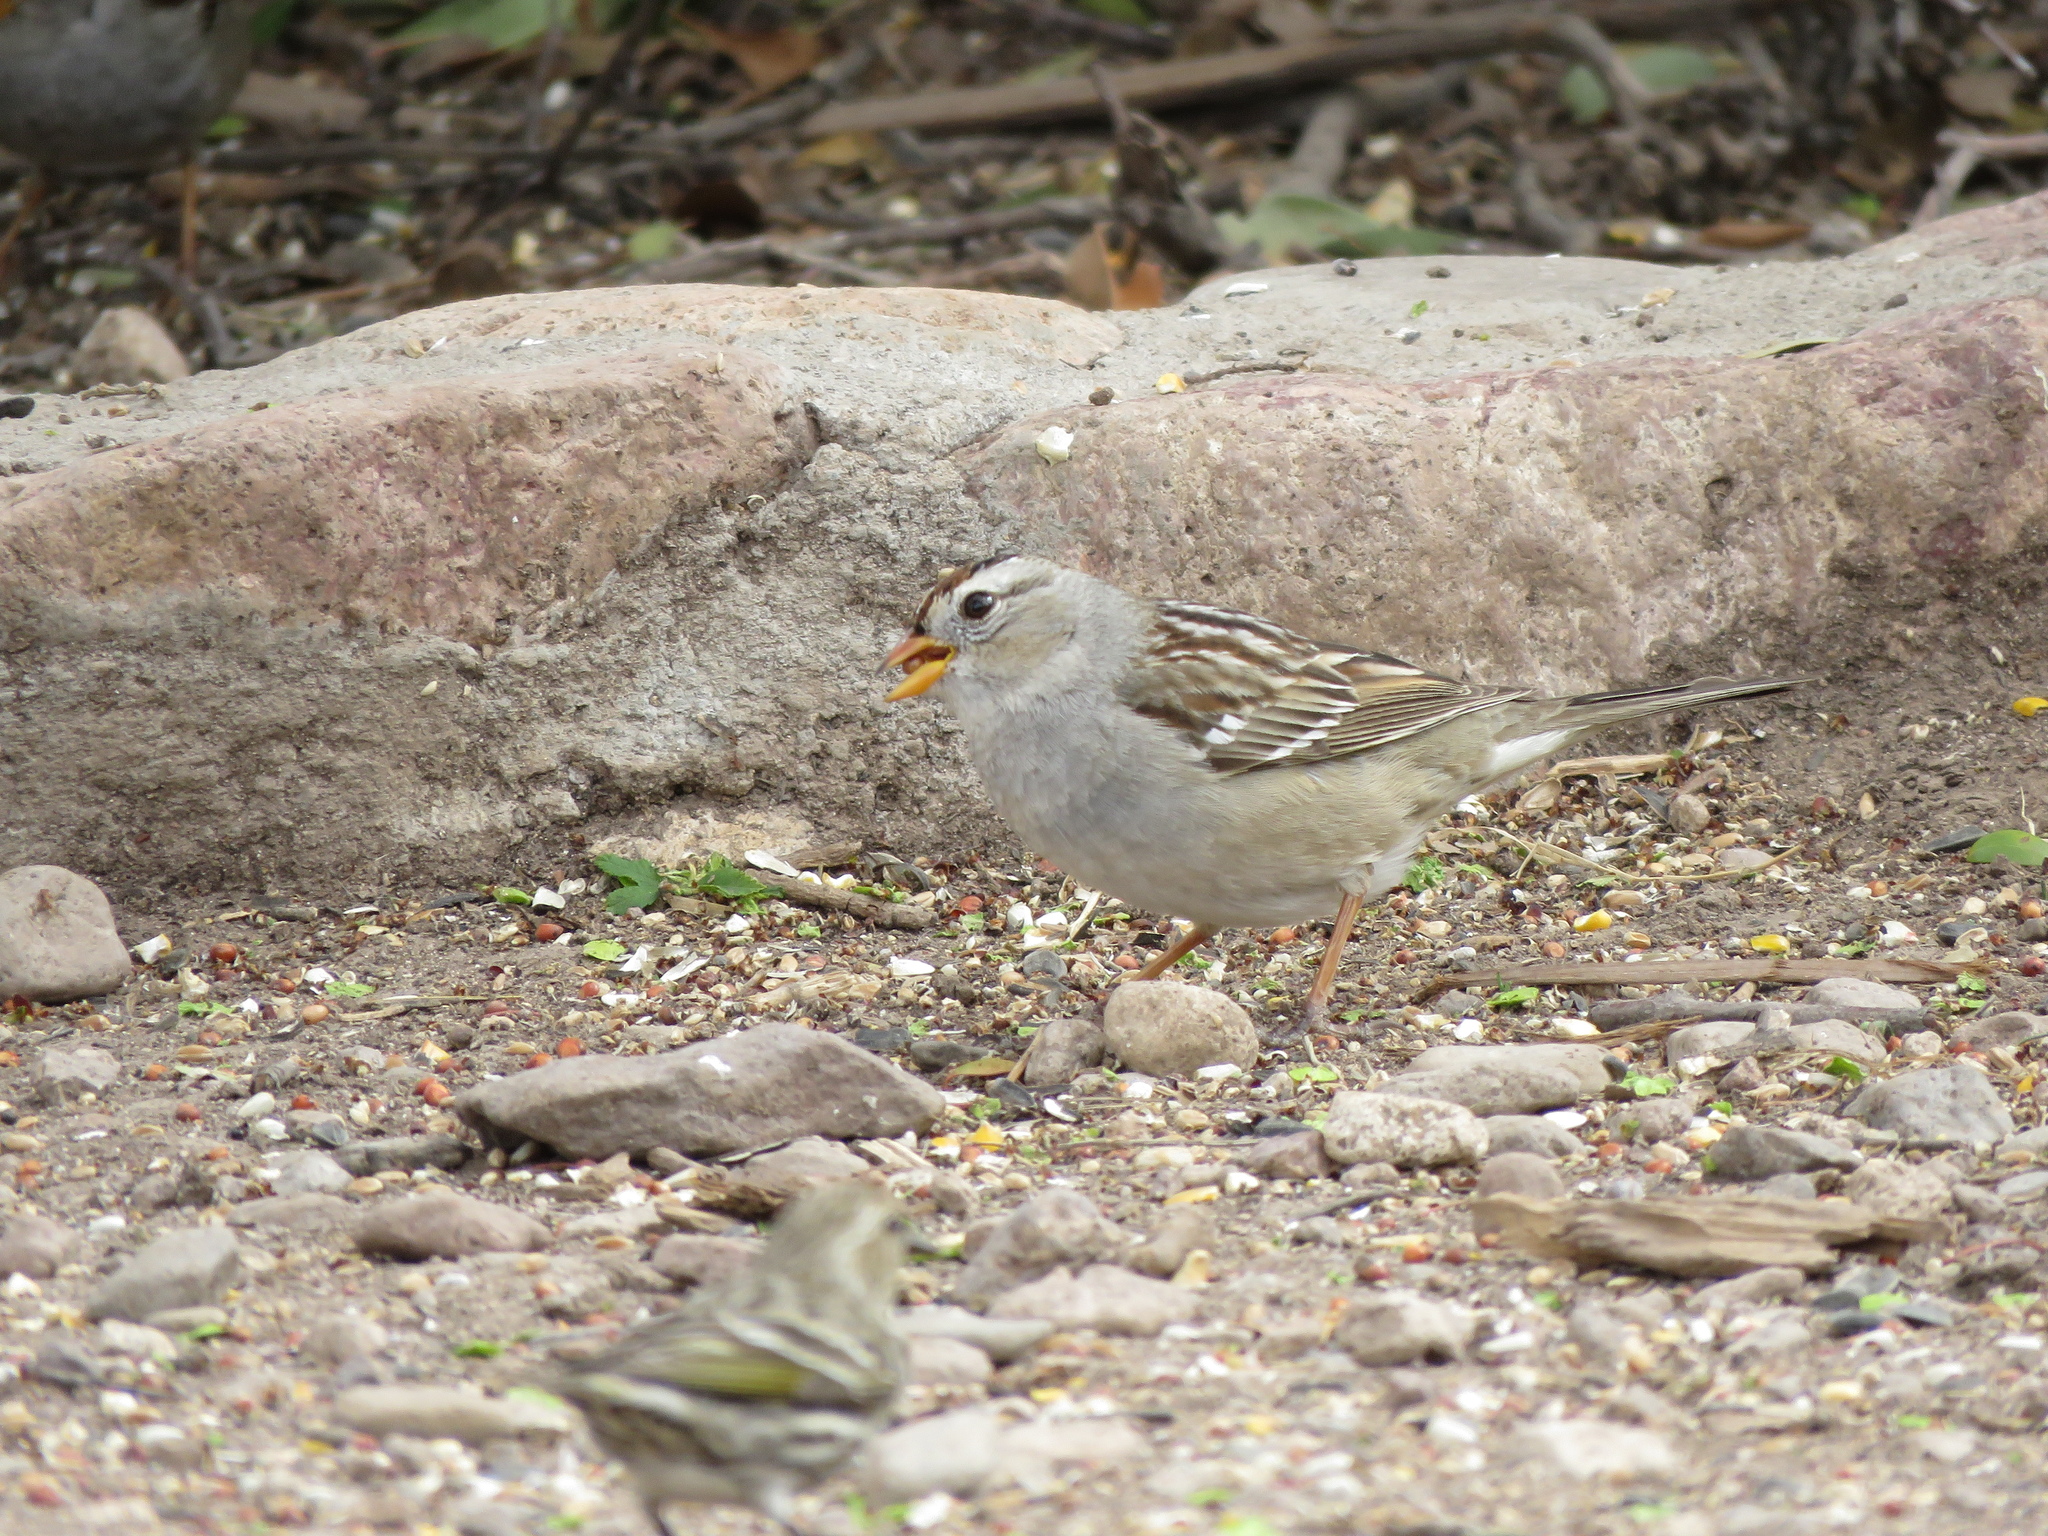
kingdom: Animalia
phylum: Chordata
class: Aves
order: Passeriformes
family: Passerellidae
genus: Zonotrichia
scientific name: Zonotrichia leucophrys
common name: White-crowned sparrow
